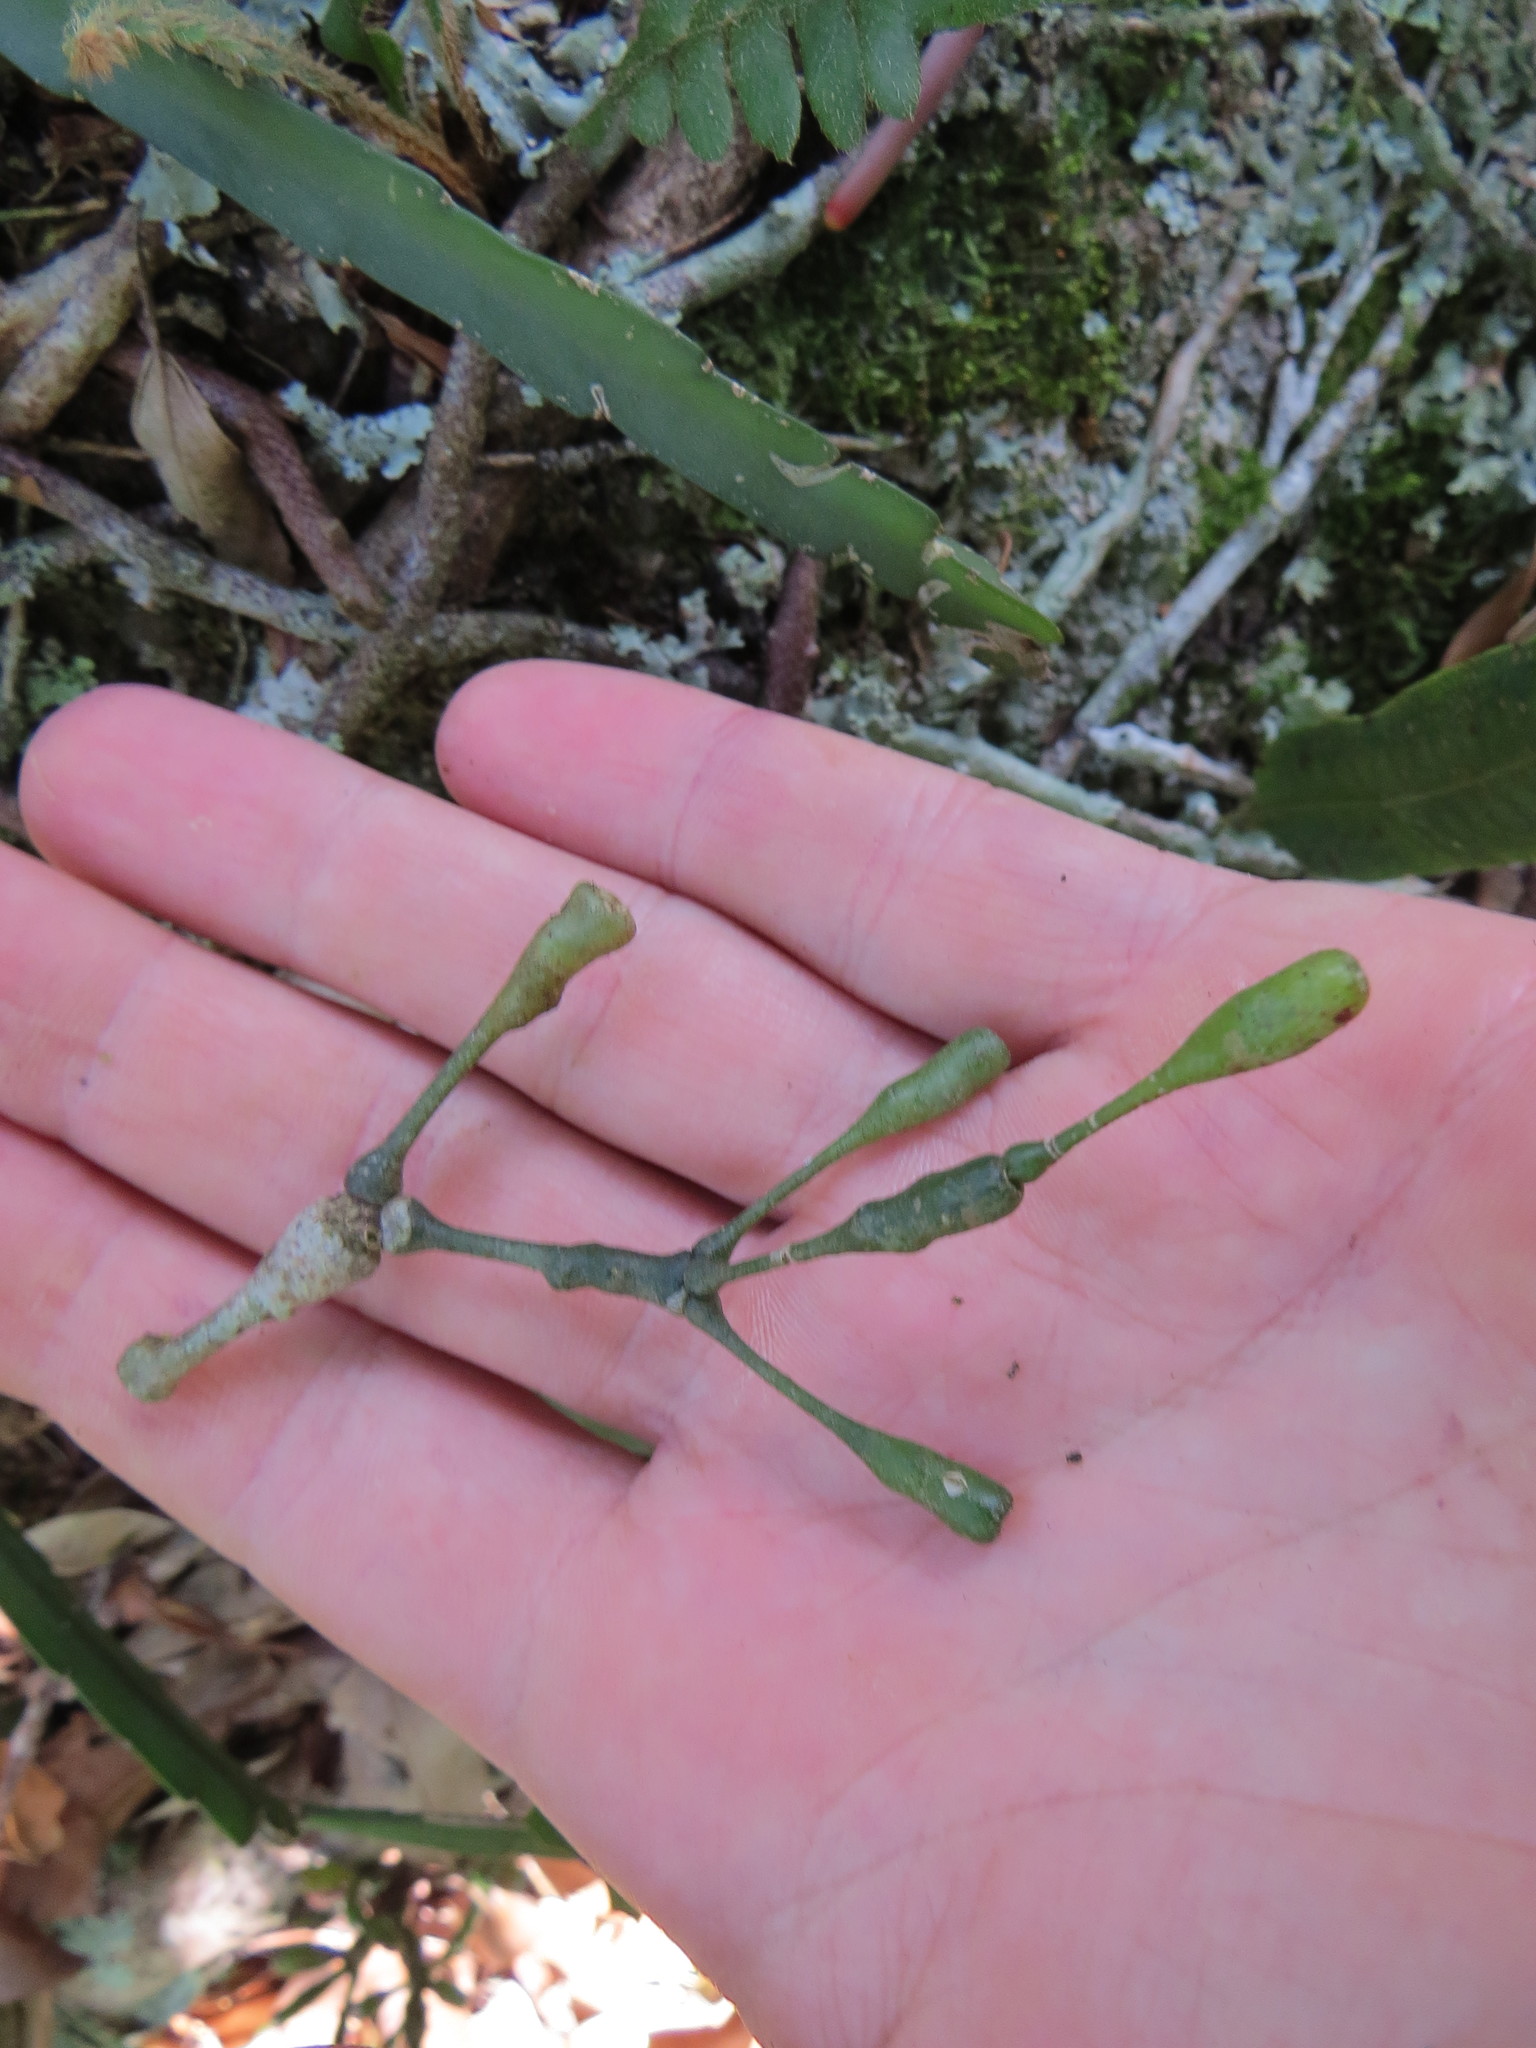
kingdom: Plantae
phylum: Tracheophyta
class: Magnoliopsida
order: Caryophyllales
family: Cactaceae
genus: Hatiora
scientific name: Hatiora salicornoides
